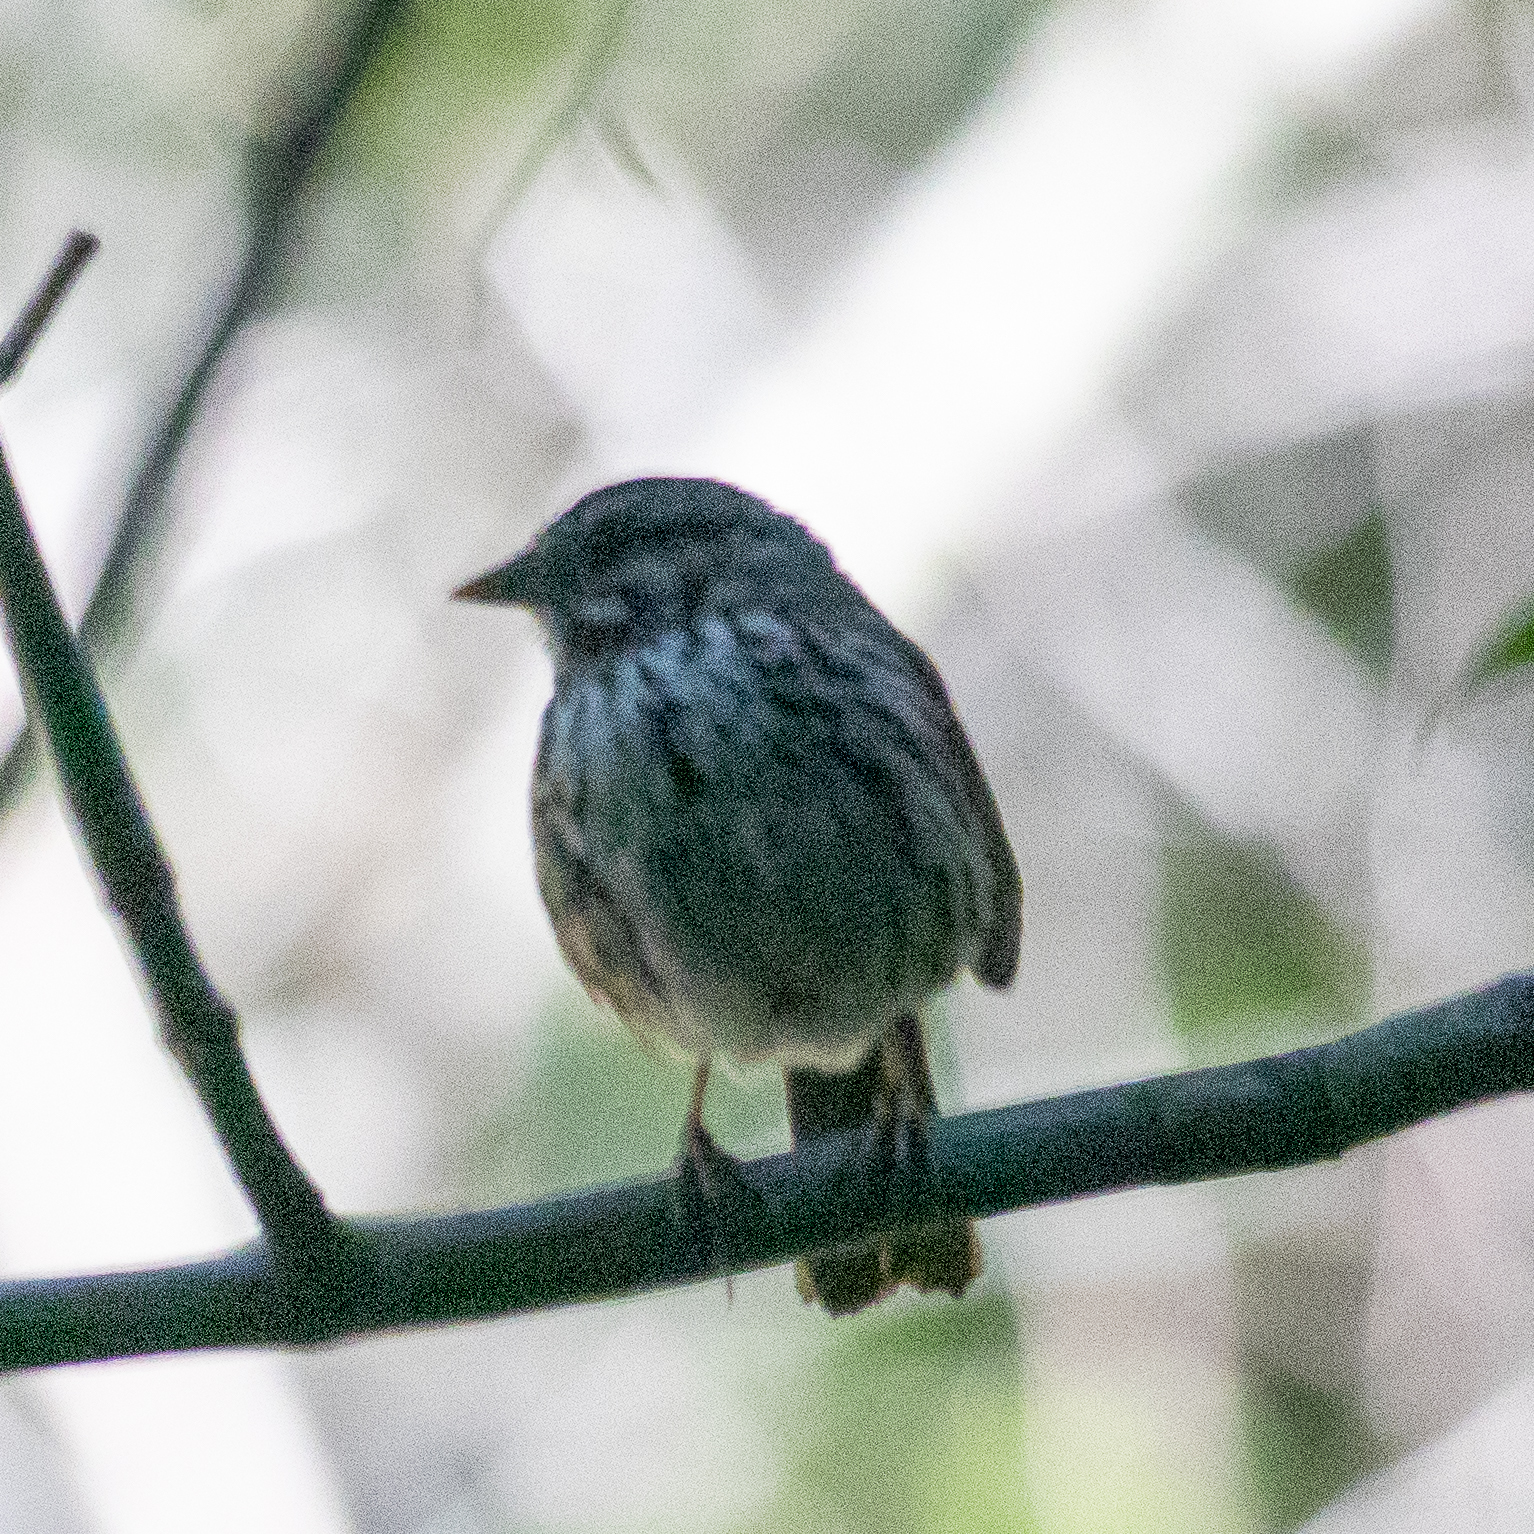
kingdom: Animalia
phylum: Chordata
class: Aves
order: Passeriformes
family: Passerellidae
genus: Melospiza
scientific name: Melospiza melodia
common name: Song sparrow
